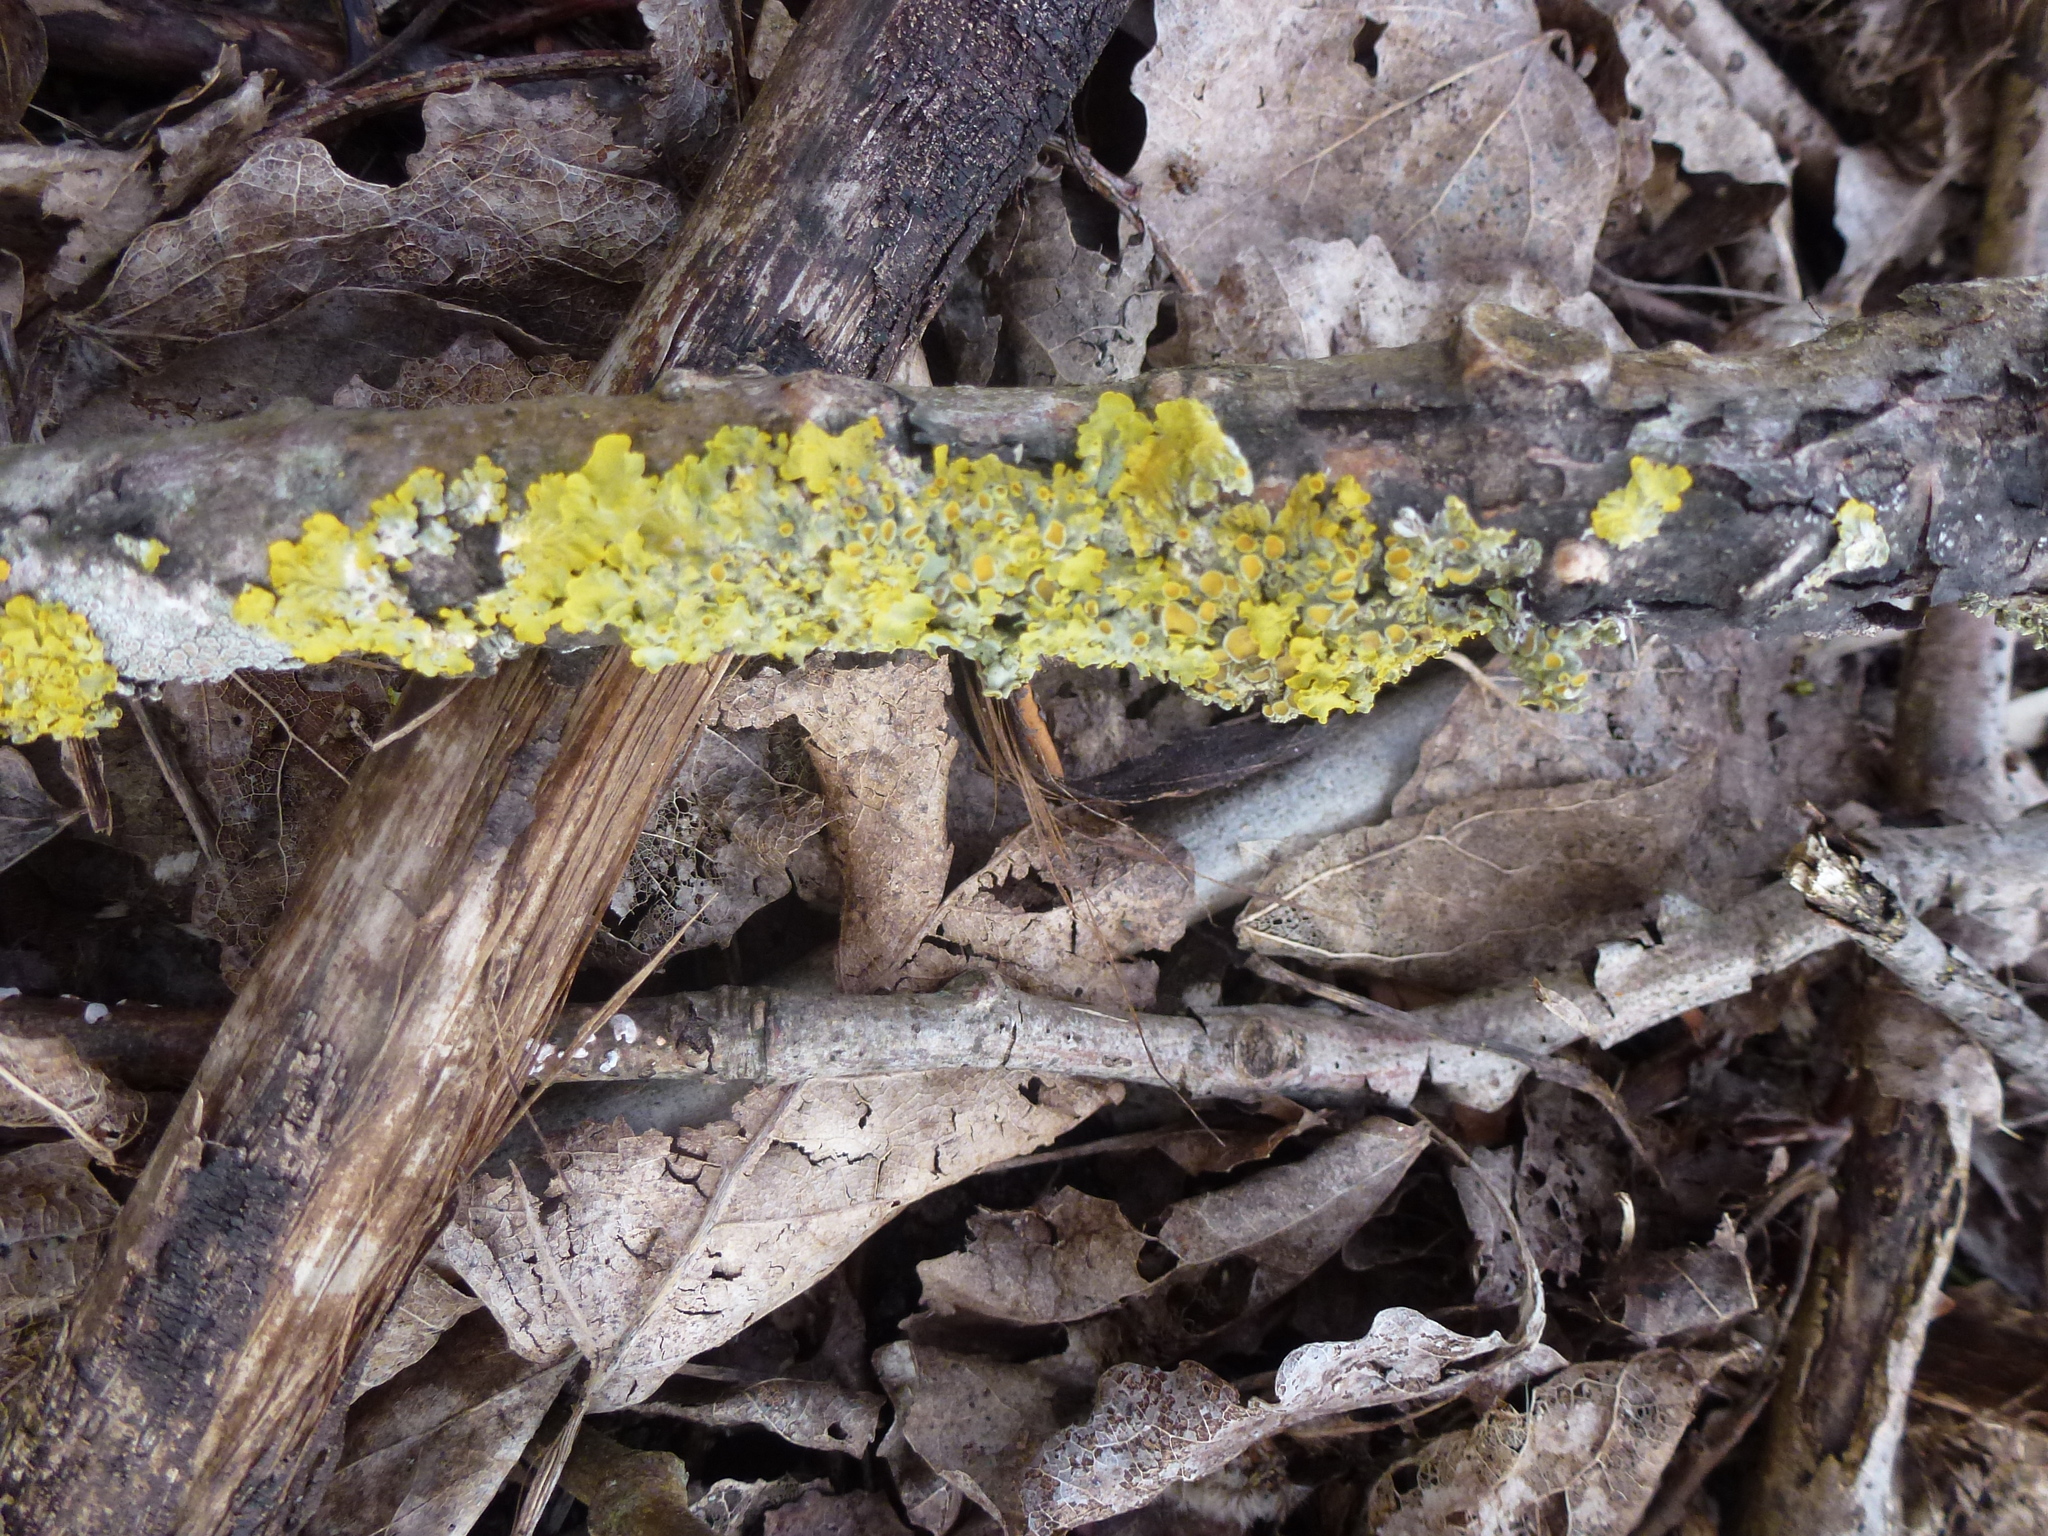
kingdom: Fungi
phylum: Ascomycota
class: Lecanoromycetes
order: Teloschistales
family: Teloschistaceae
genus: Xanthoria
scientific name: Xanthoria parietina
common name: Common orange lichen
